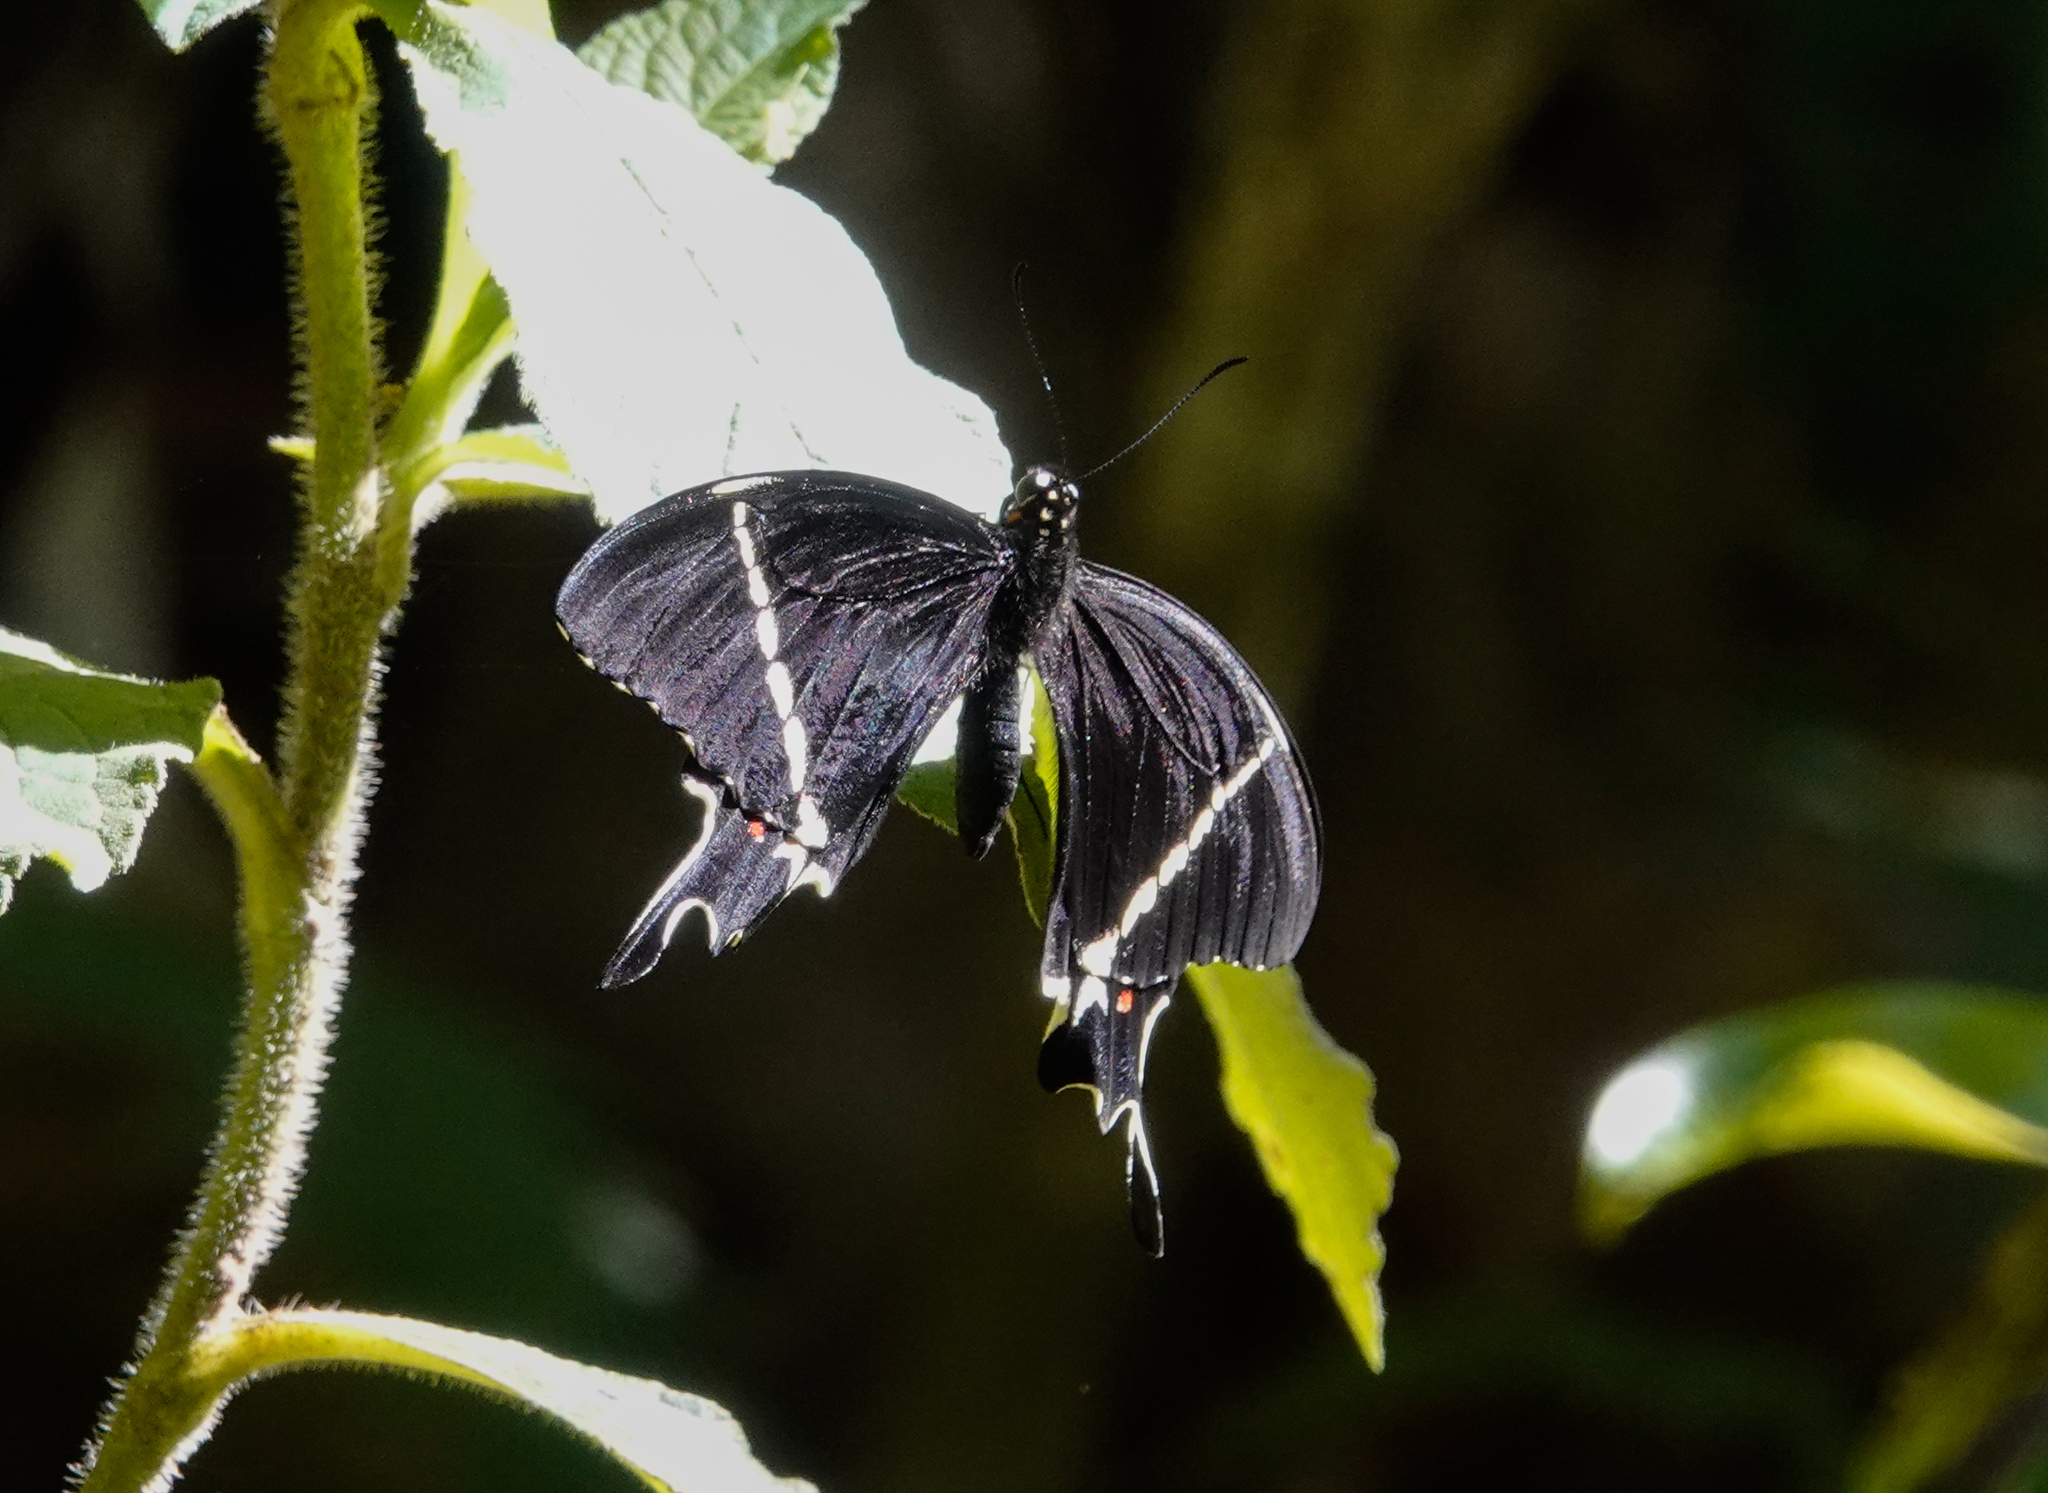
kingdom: Animalia
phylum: Arthropoda
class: Insecta
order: Lepidoptera
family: Papilionidae
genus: Papilio
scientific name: Papilio pelaus
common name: Pelaus swallowtail
